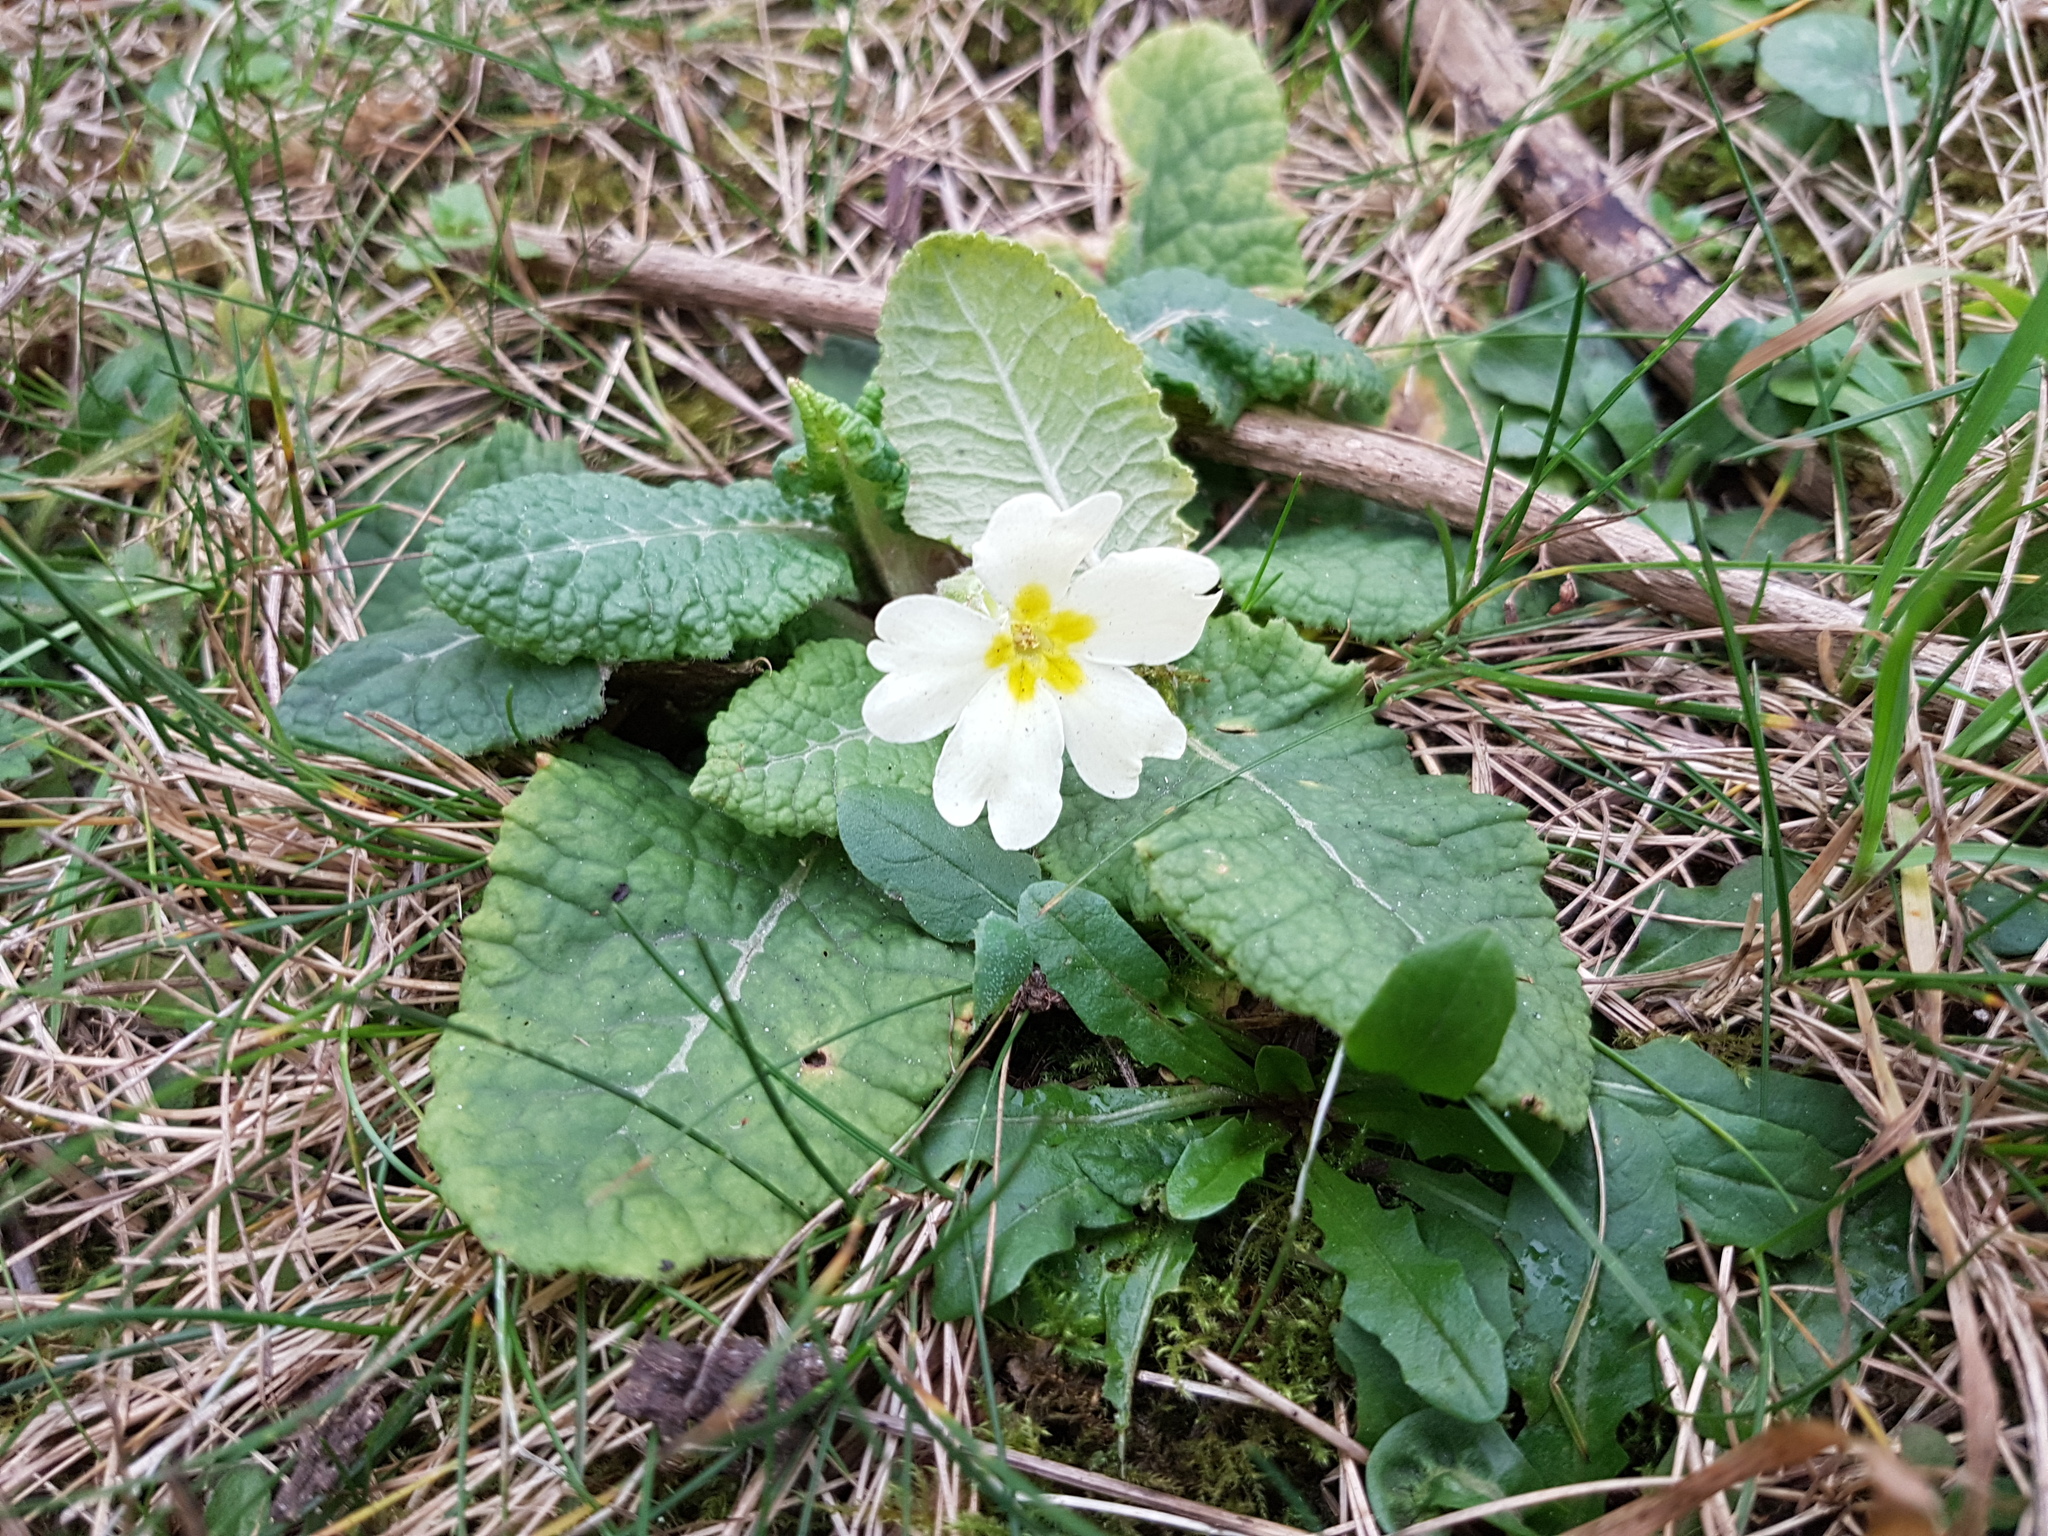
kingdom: Plantae
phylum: Tracheophyta
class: Magnoliopsida
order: Ericales
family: Primulaceae
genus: Primula
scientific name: Primula vulgaris
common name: Primrose
